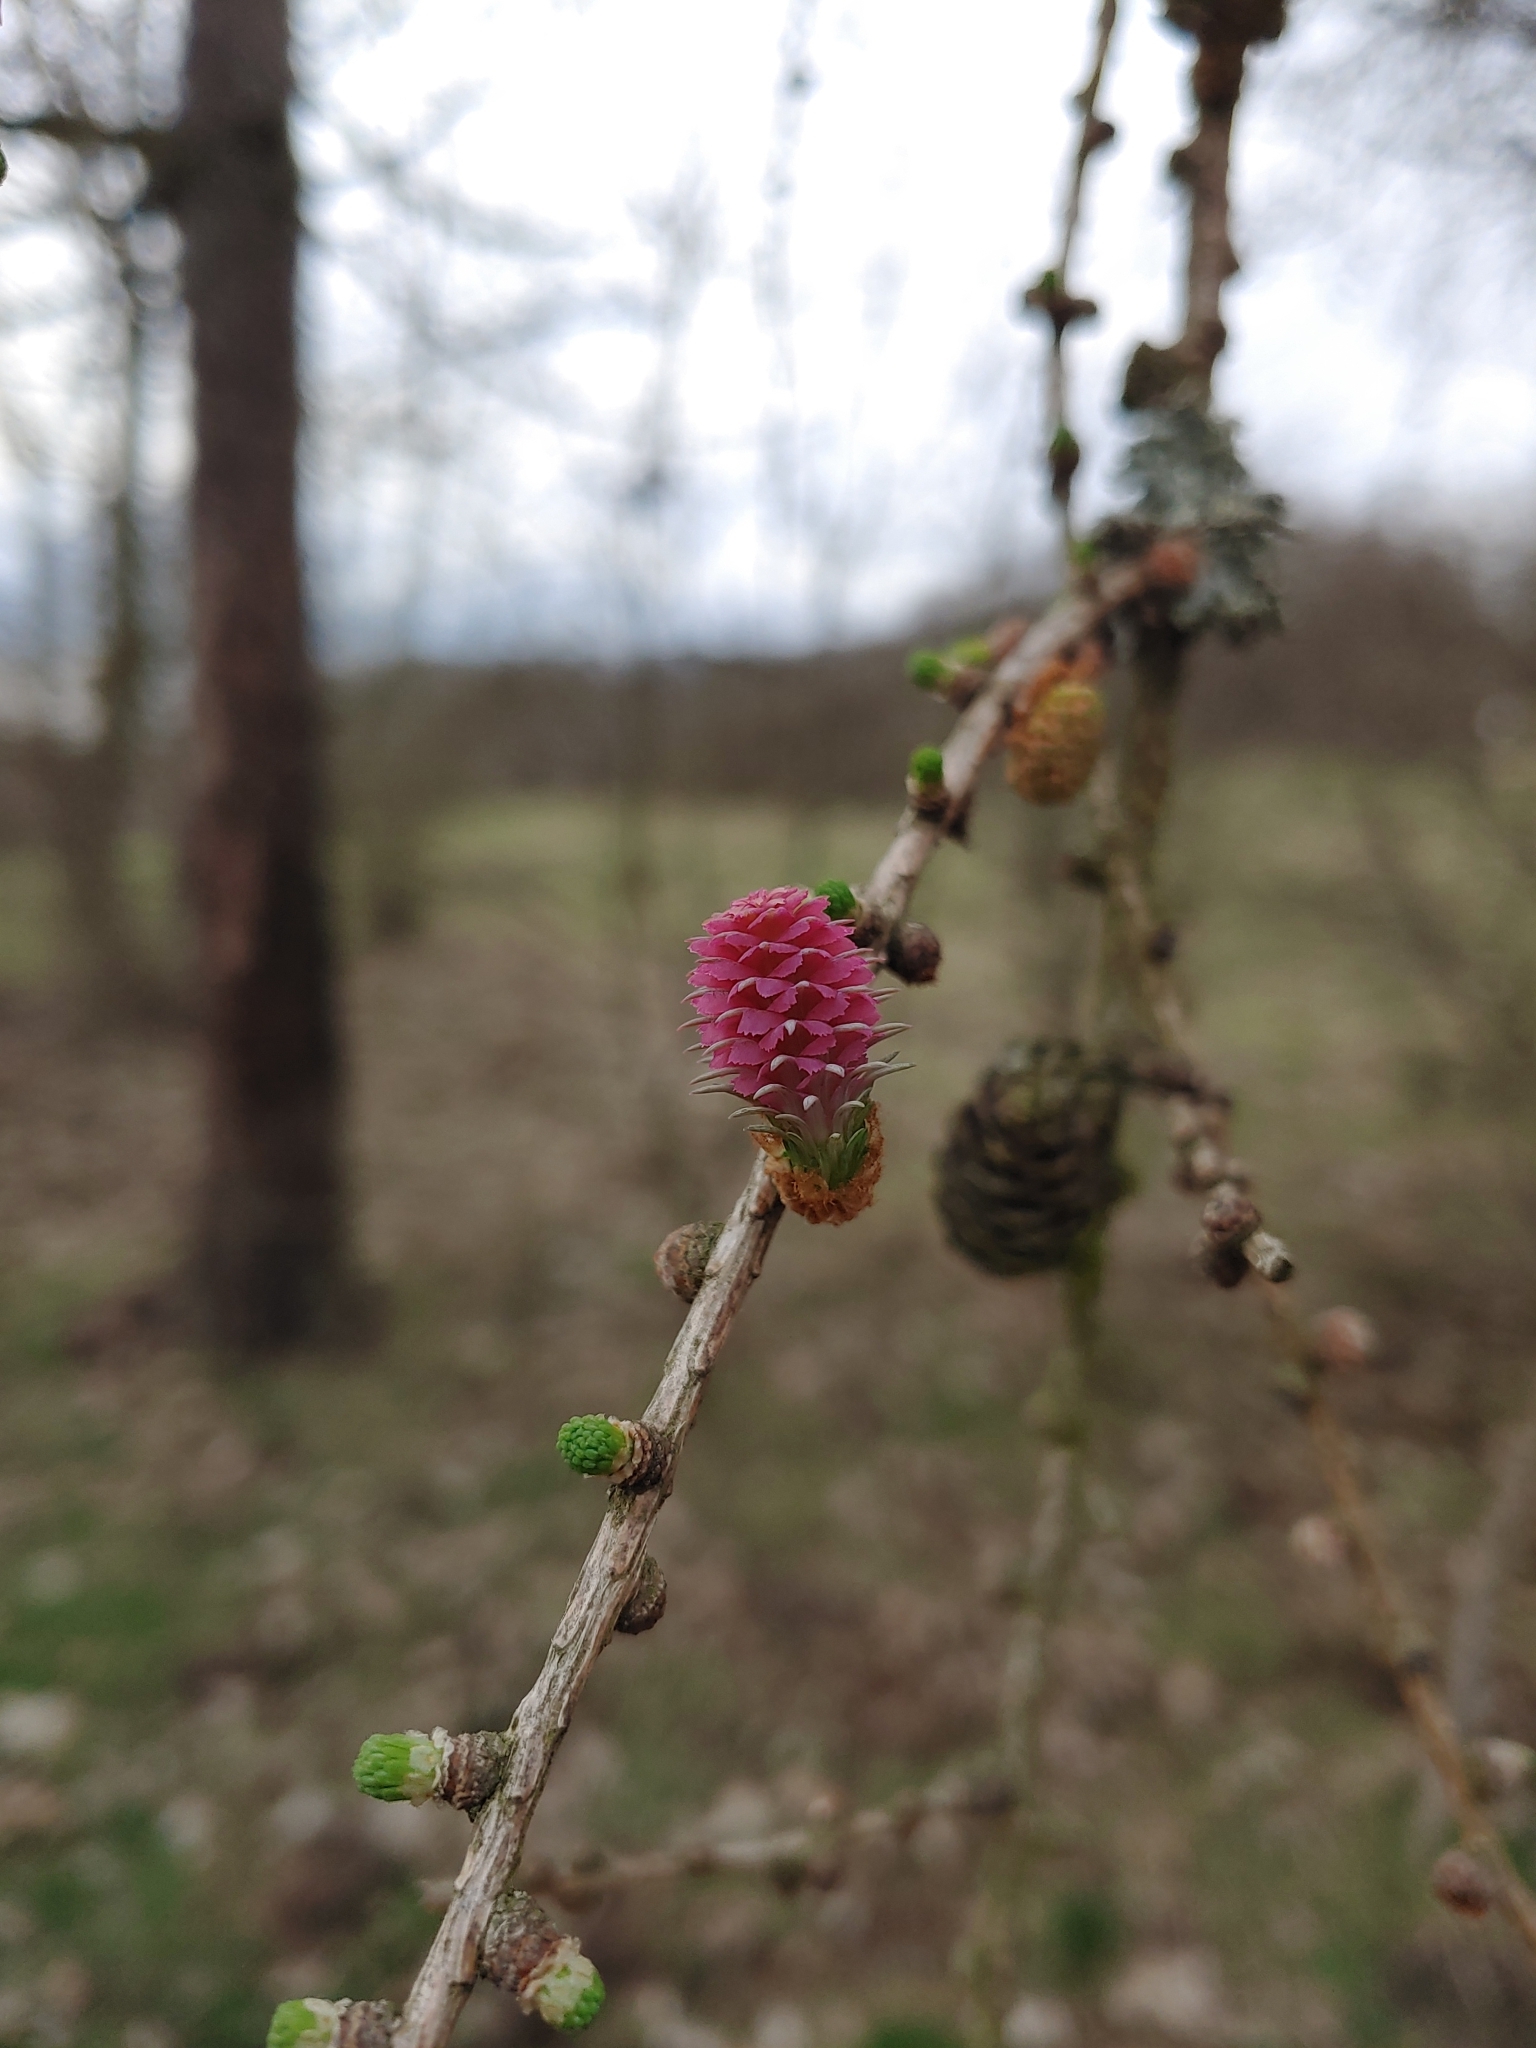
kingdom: Plantae
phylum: Tracheophyta
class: Pinopsida
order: Pinales
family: Pinaceae
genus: Larix
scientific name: Larix decidua
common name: European larch
